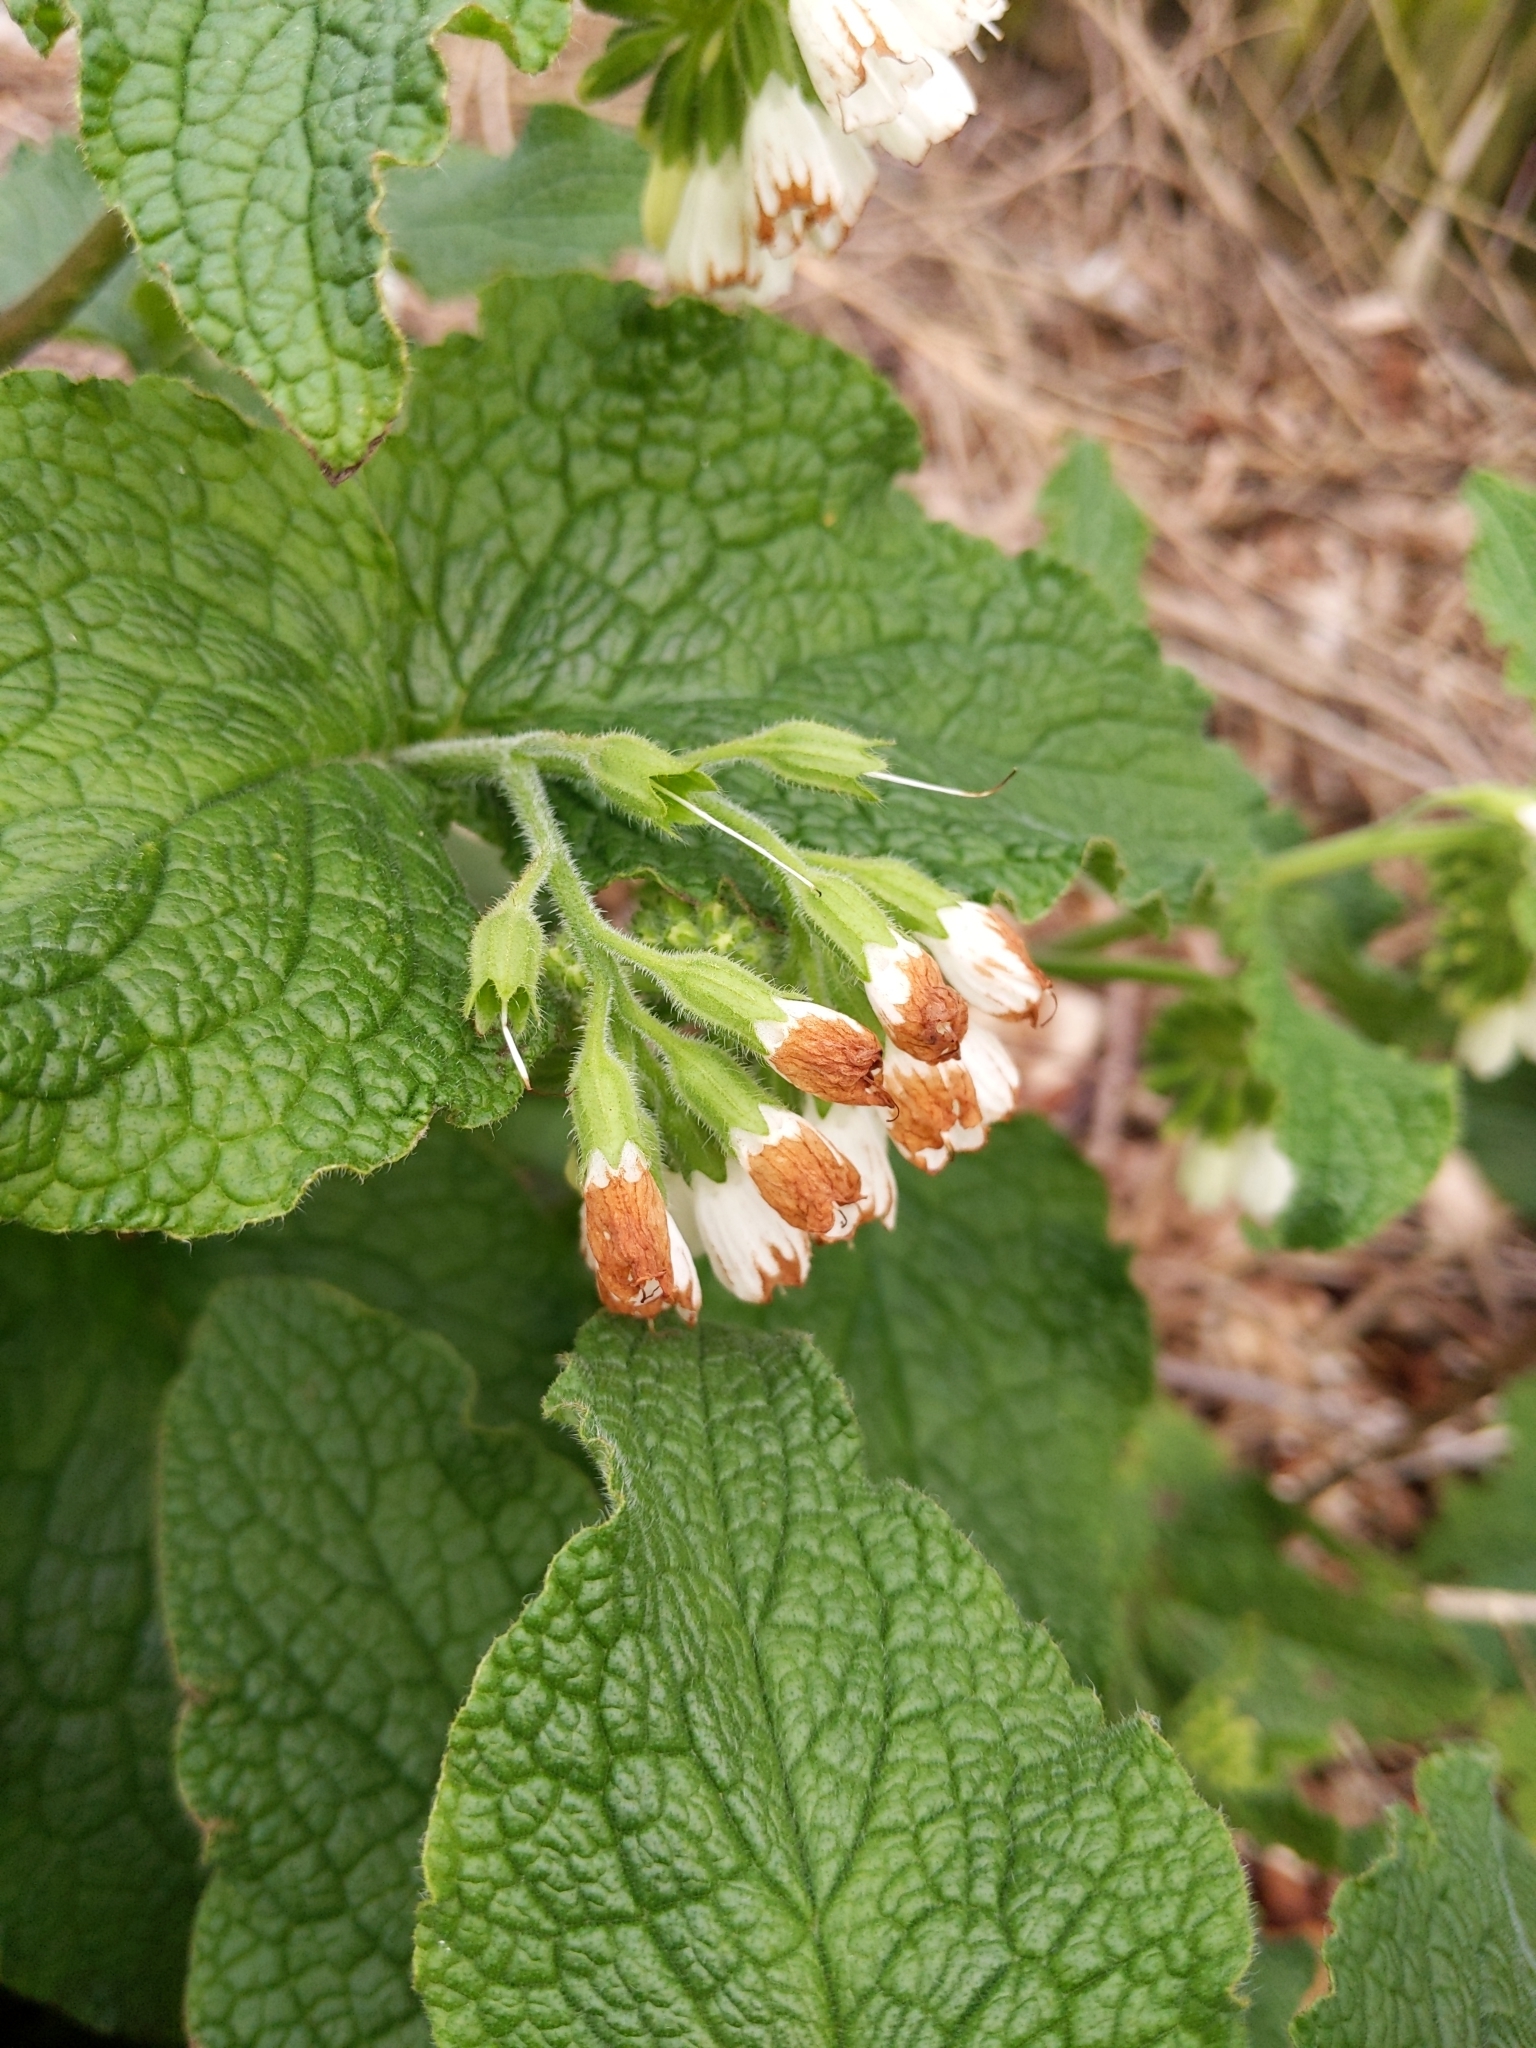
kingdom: Plantae
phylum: Tracheophyta
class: Magnoliopsida
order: Boraginales
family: Boraginaceae
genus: Symphytum
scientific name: Symphytum orientale
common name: White comfrey
